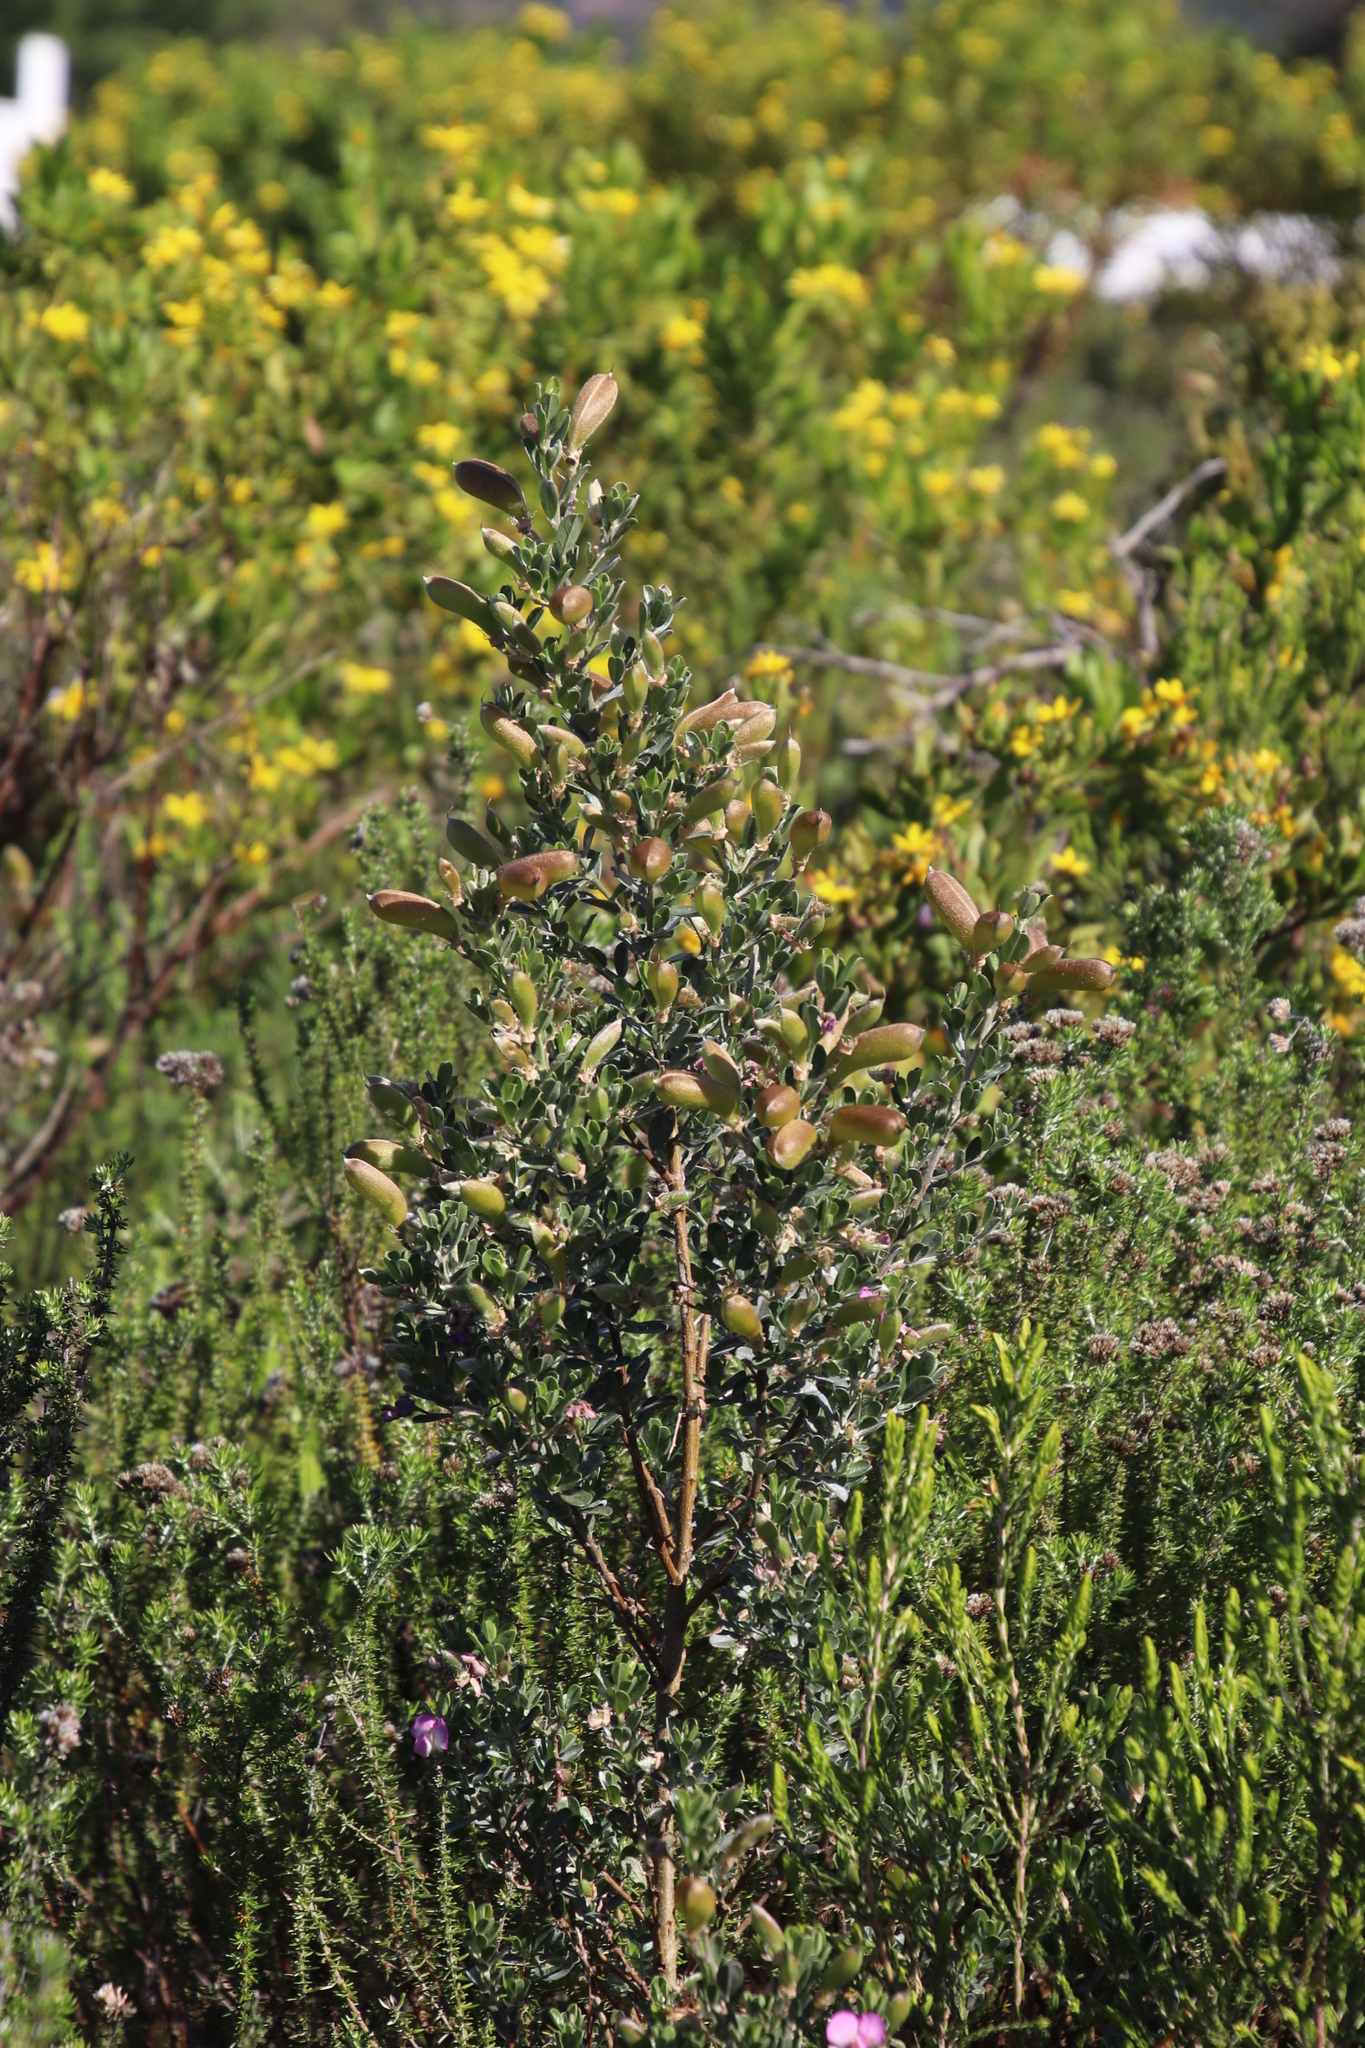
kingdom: Plantae
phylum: Tracheophyta
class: Magnoliopsida
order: Fabales
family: Fabaceae
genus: Podalyria
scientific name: Podalyria myrtillifolia
